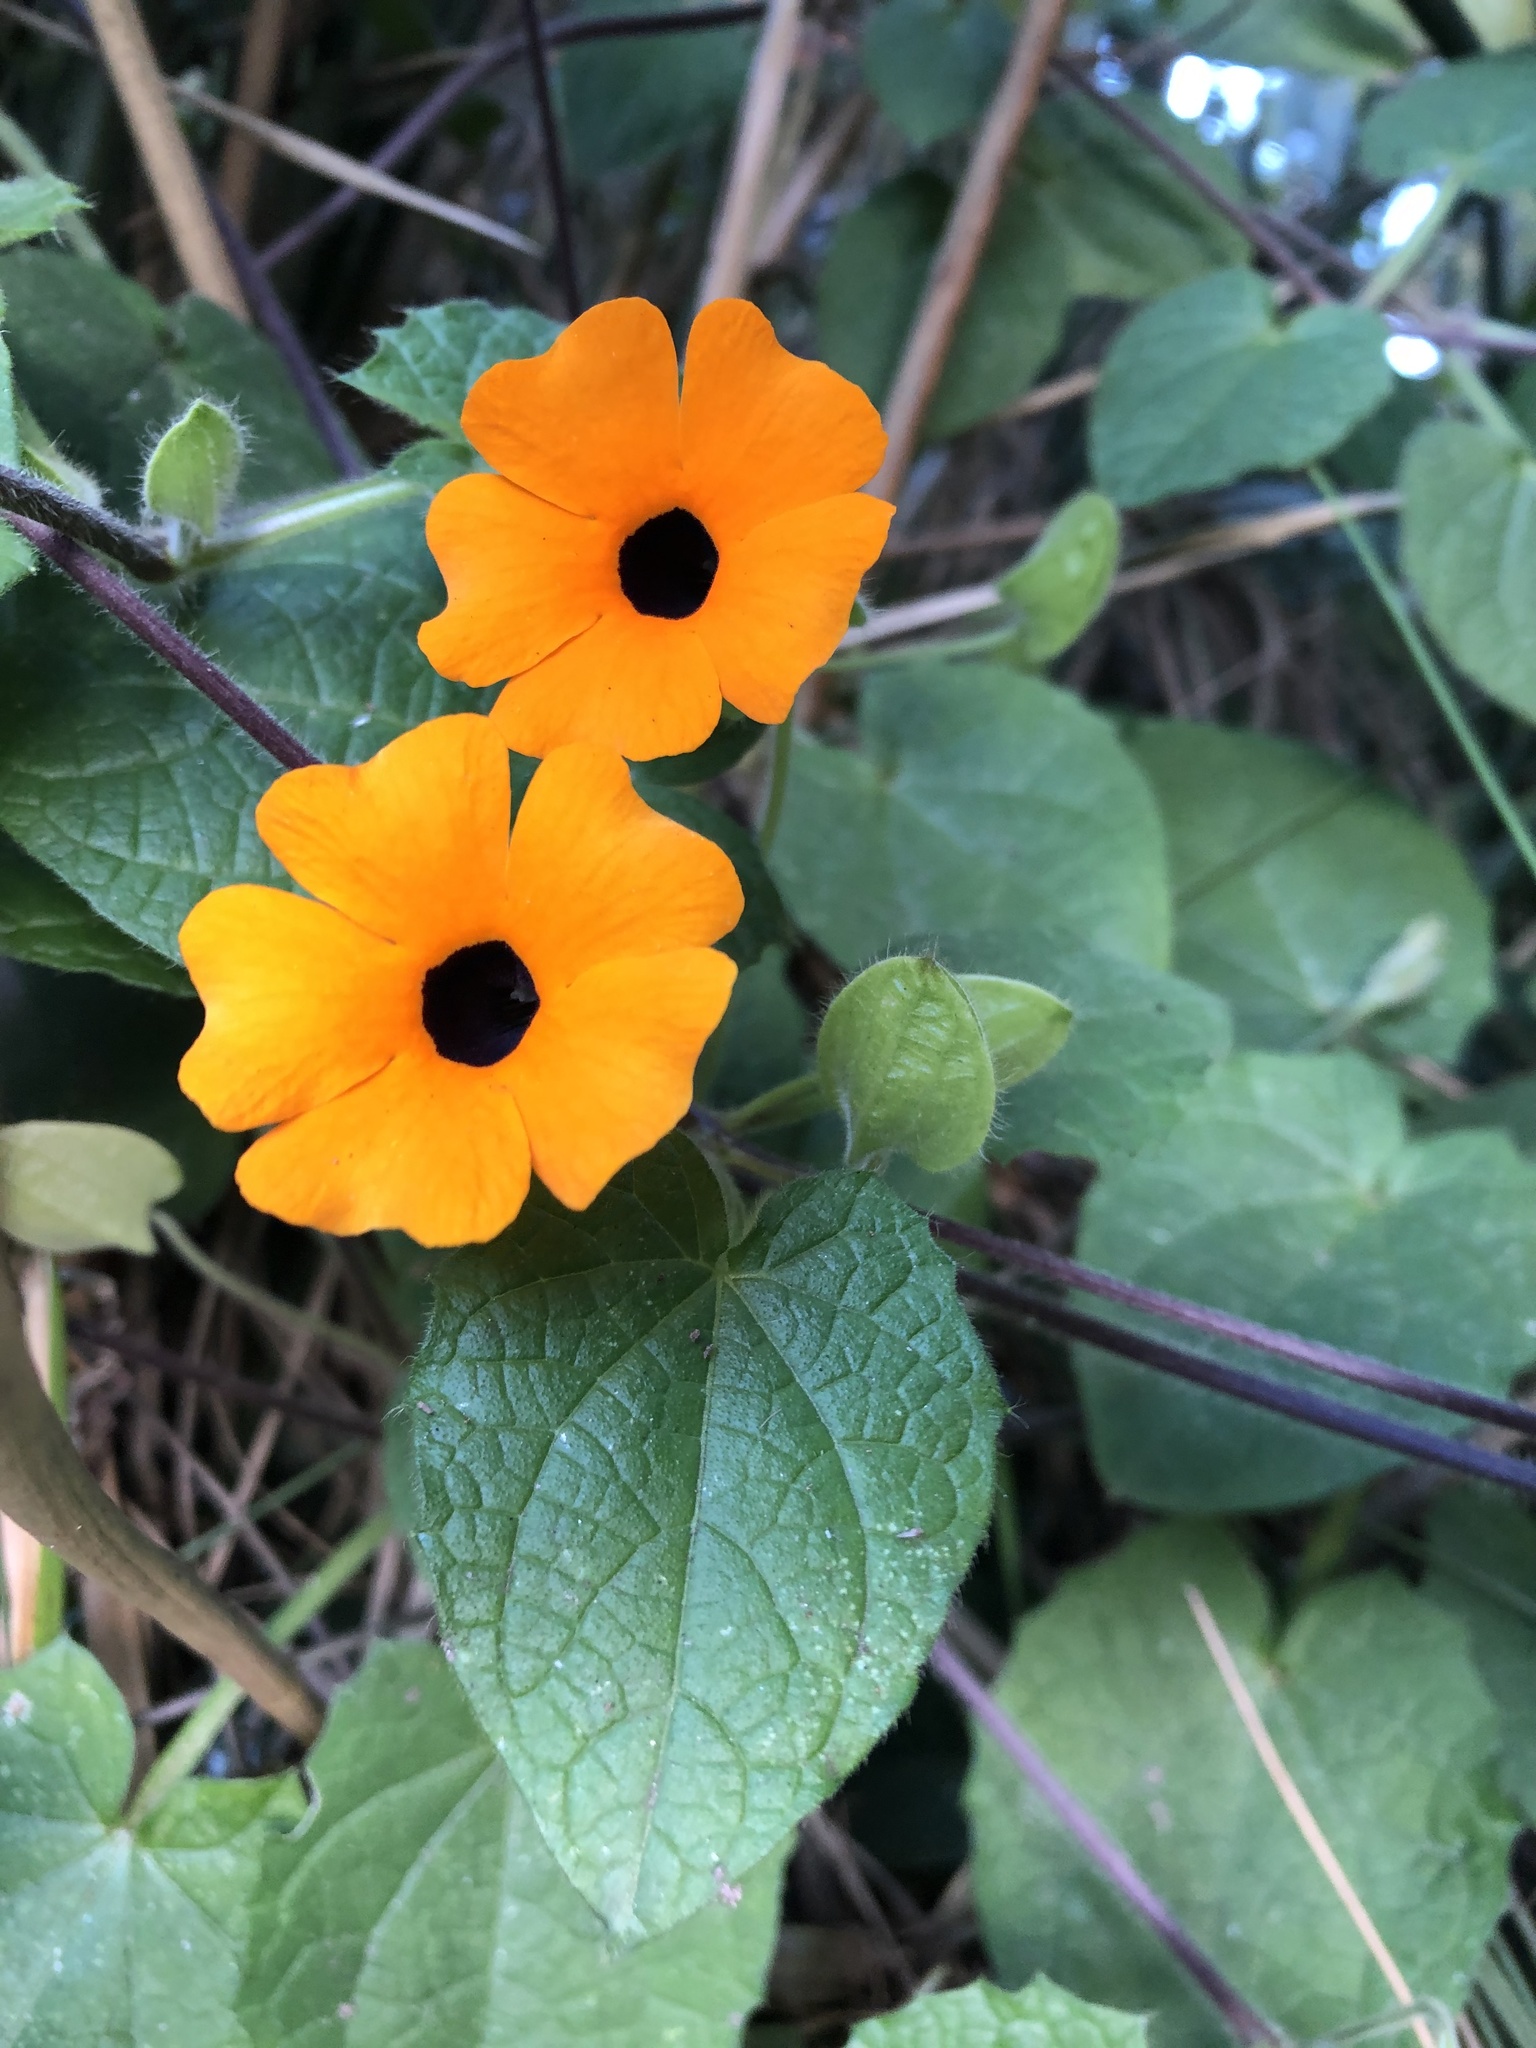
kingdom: Plantae
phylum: Tracheophyta
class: Magnoliopsida
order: Lamiales
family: Acanthaceae
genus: Thunbergia
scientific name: Thunbergia alata
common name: Blackeyed susan vine
